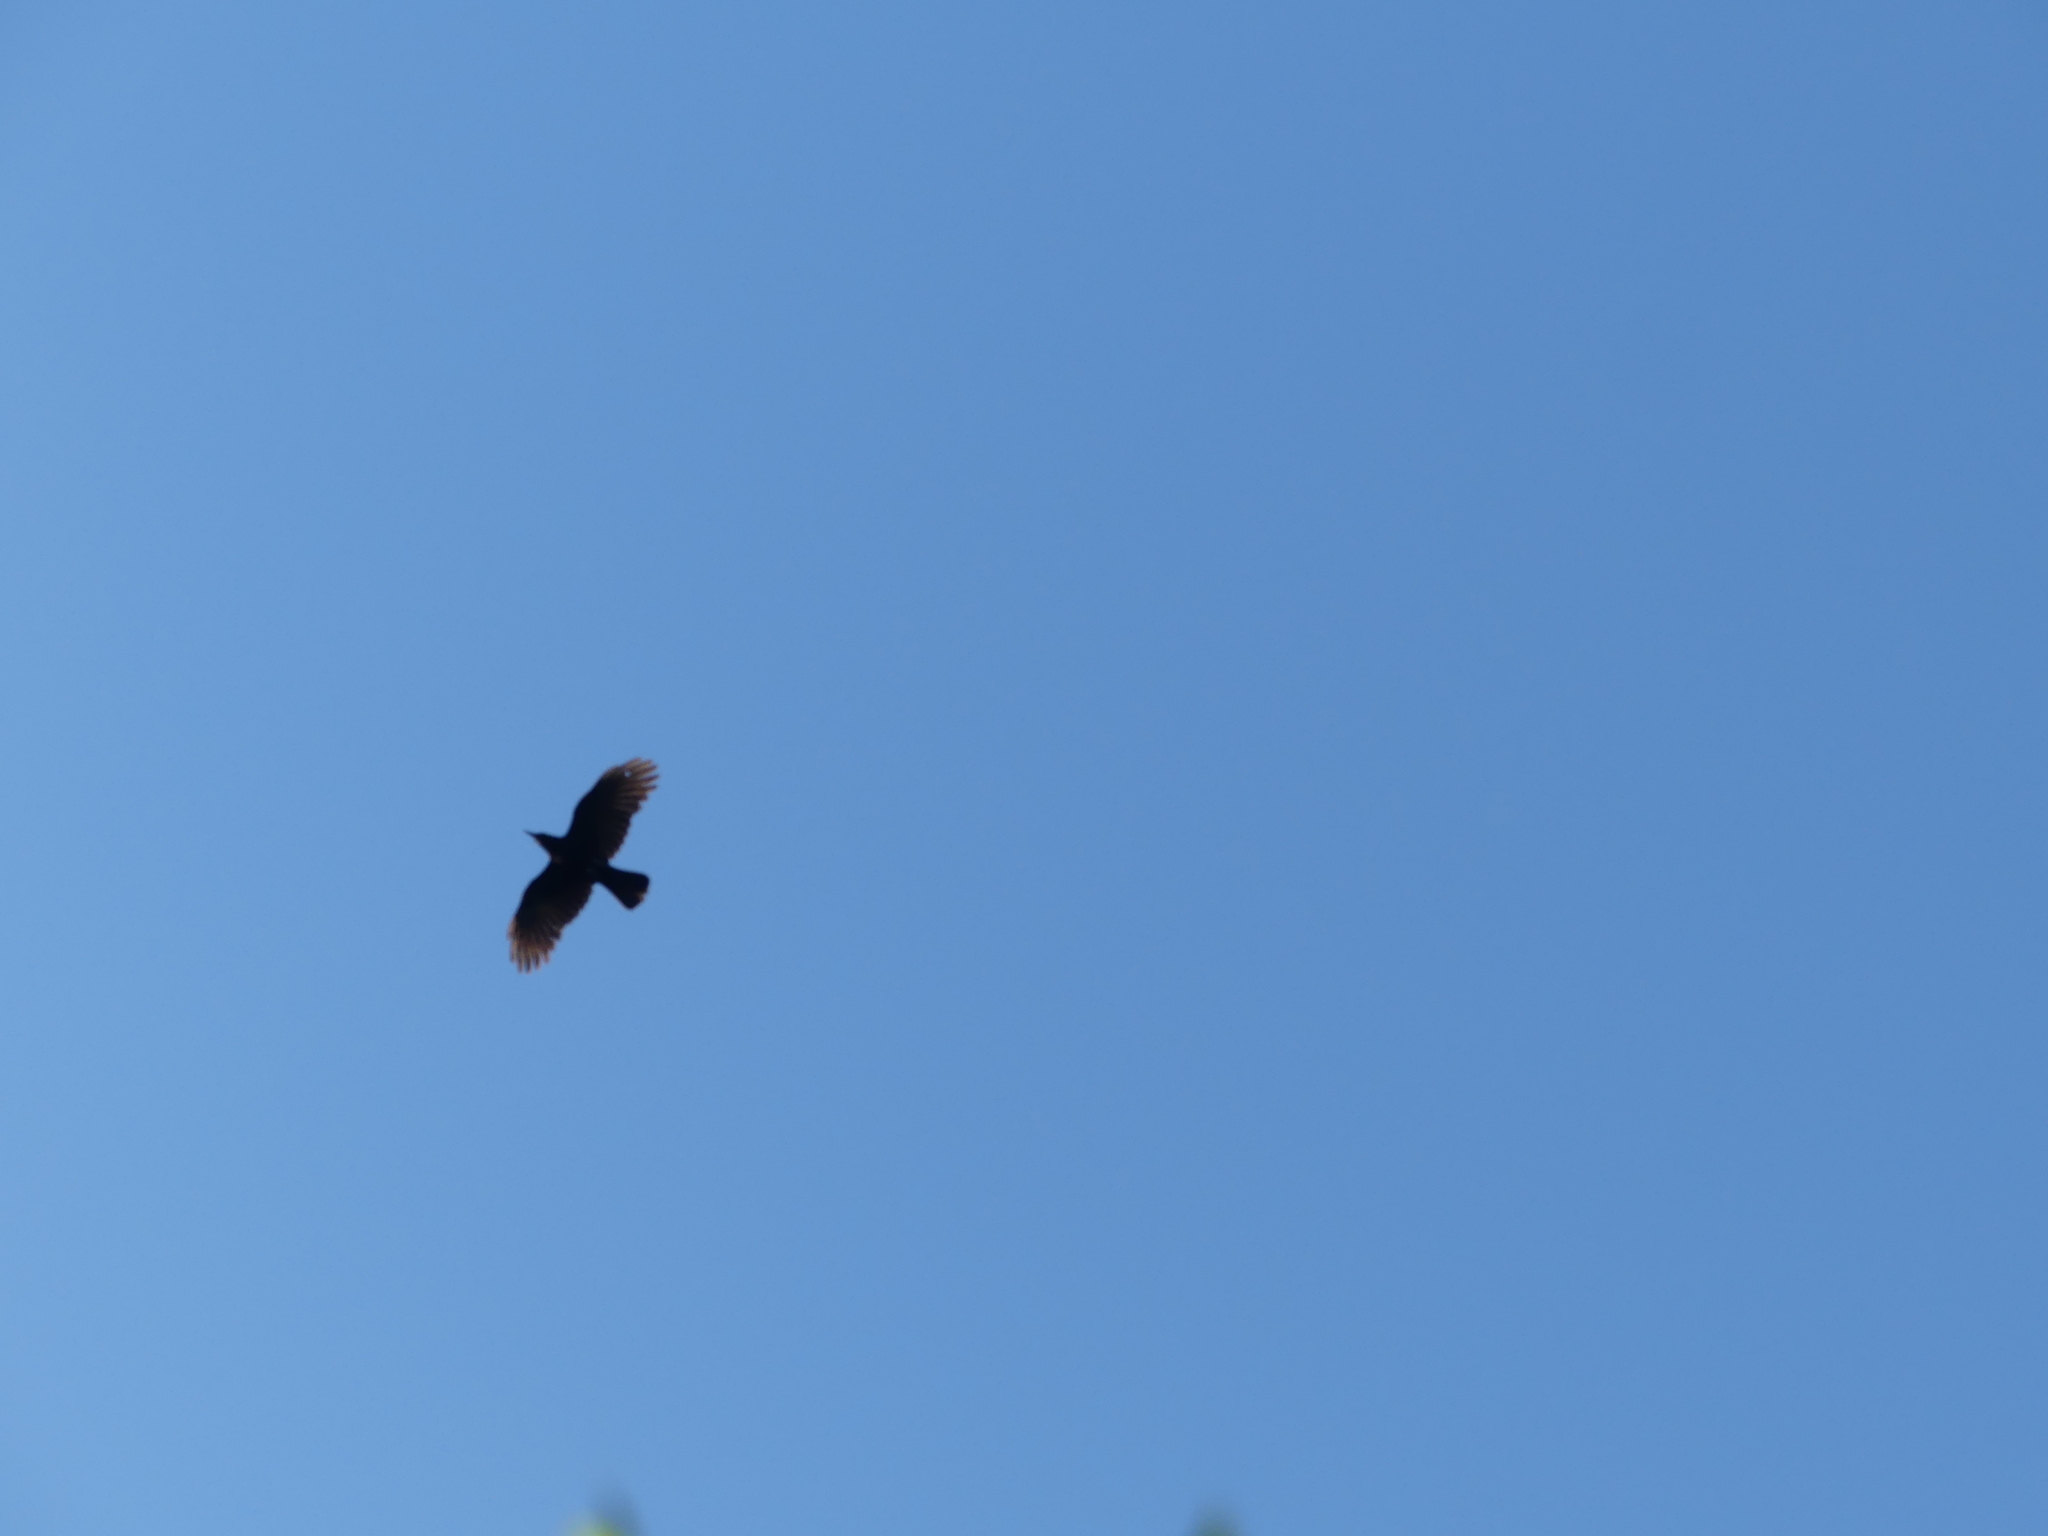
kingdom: Animalia
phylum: Chordata
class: Aves
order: Passeriformes
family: Corvidae
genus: Corvus
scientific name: Corvus brachyrhynchos
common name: American crow
